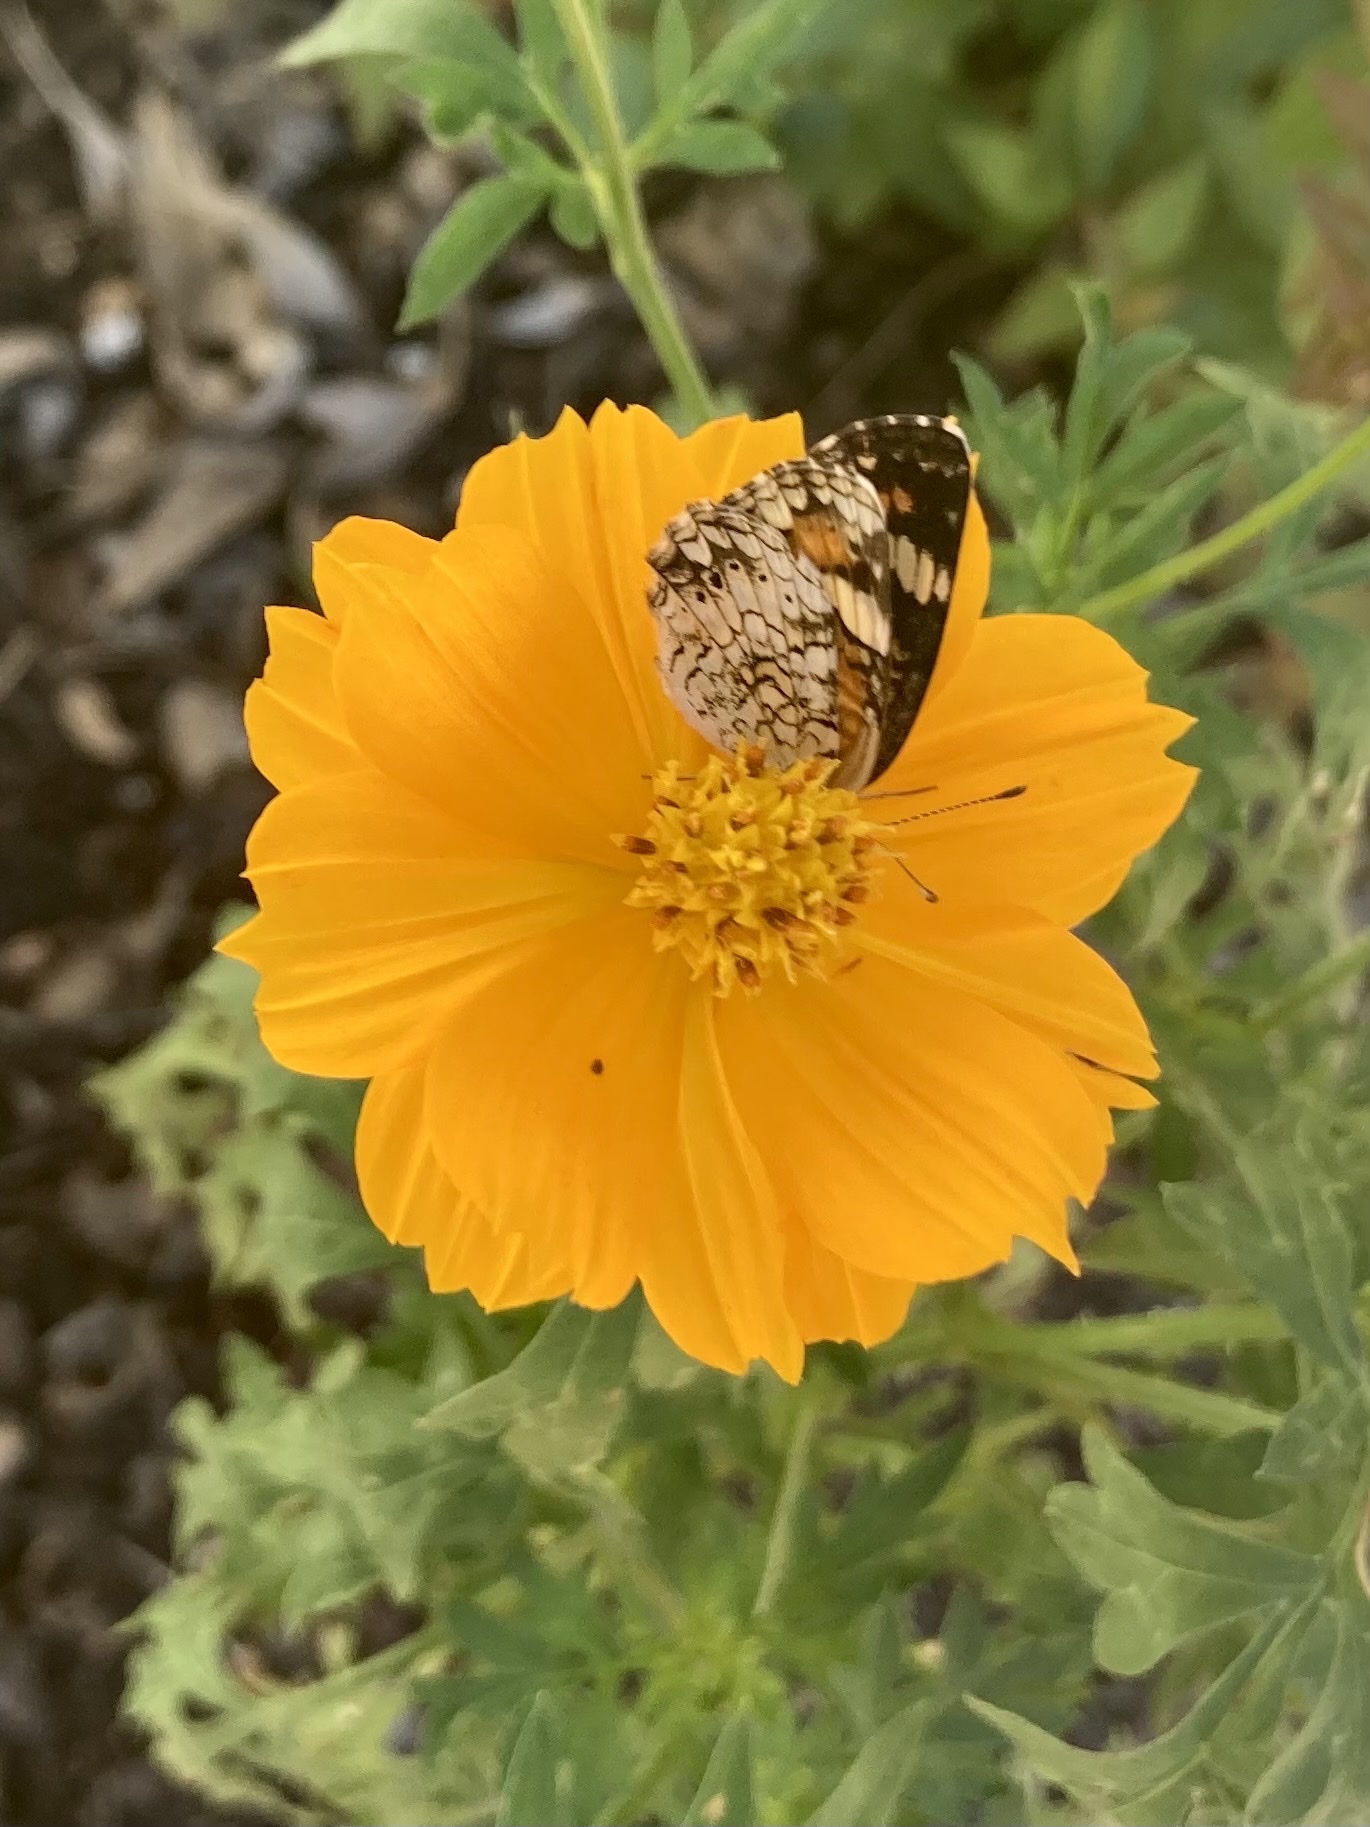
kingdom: Animalia
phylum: Arthropoda
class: Insecta
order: Lepidoptera
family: Nymphalidae
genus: Phyciodes
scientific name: Phyciodes phaon
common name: Phaon crescent
